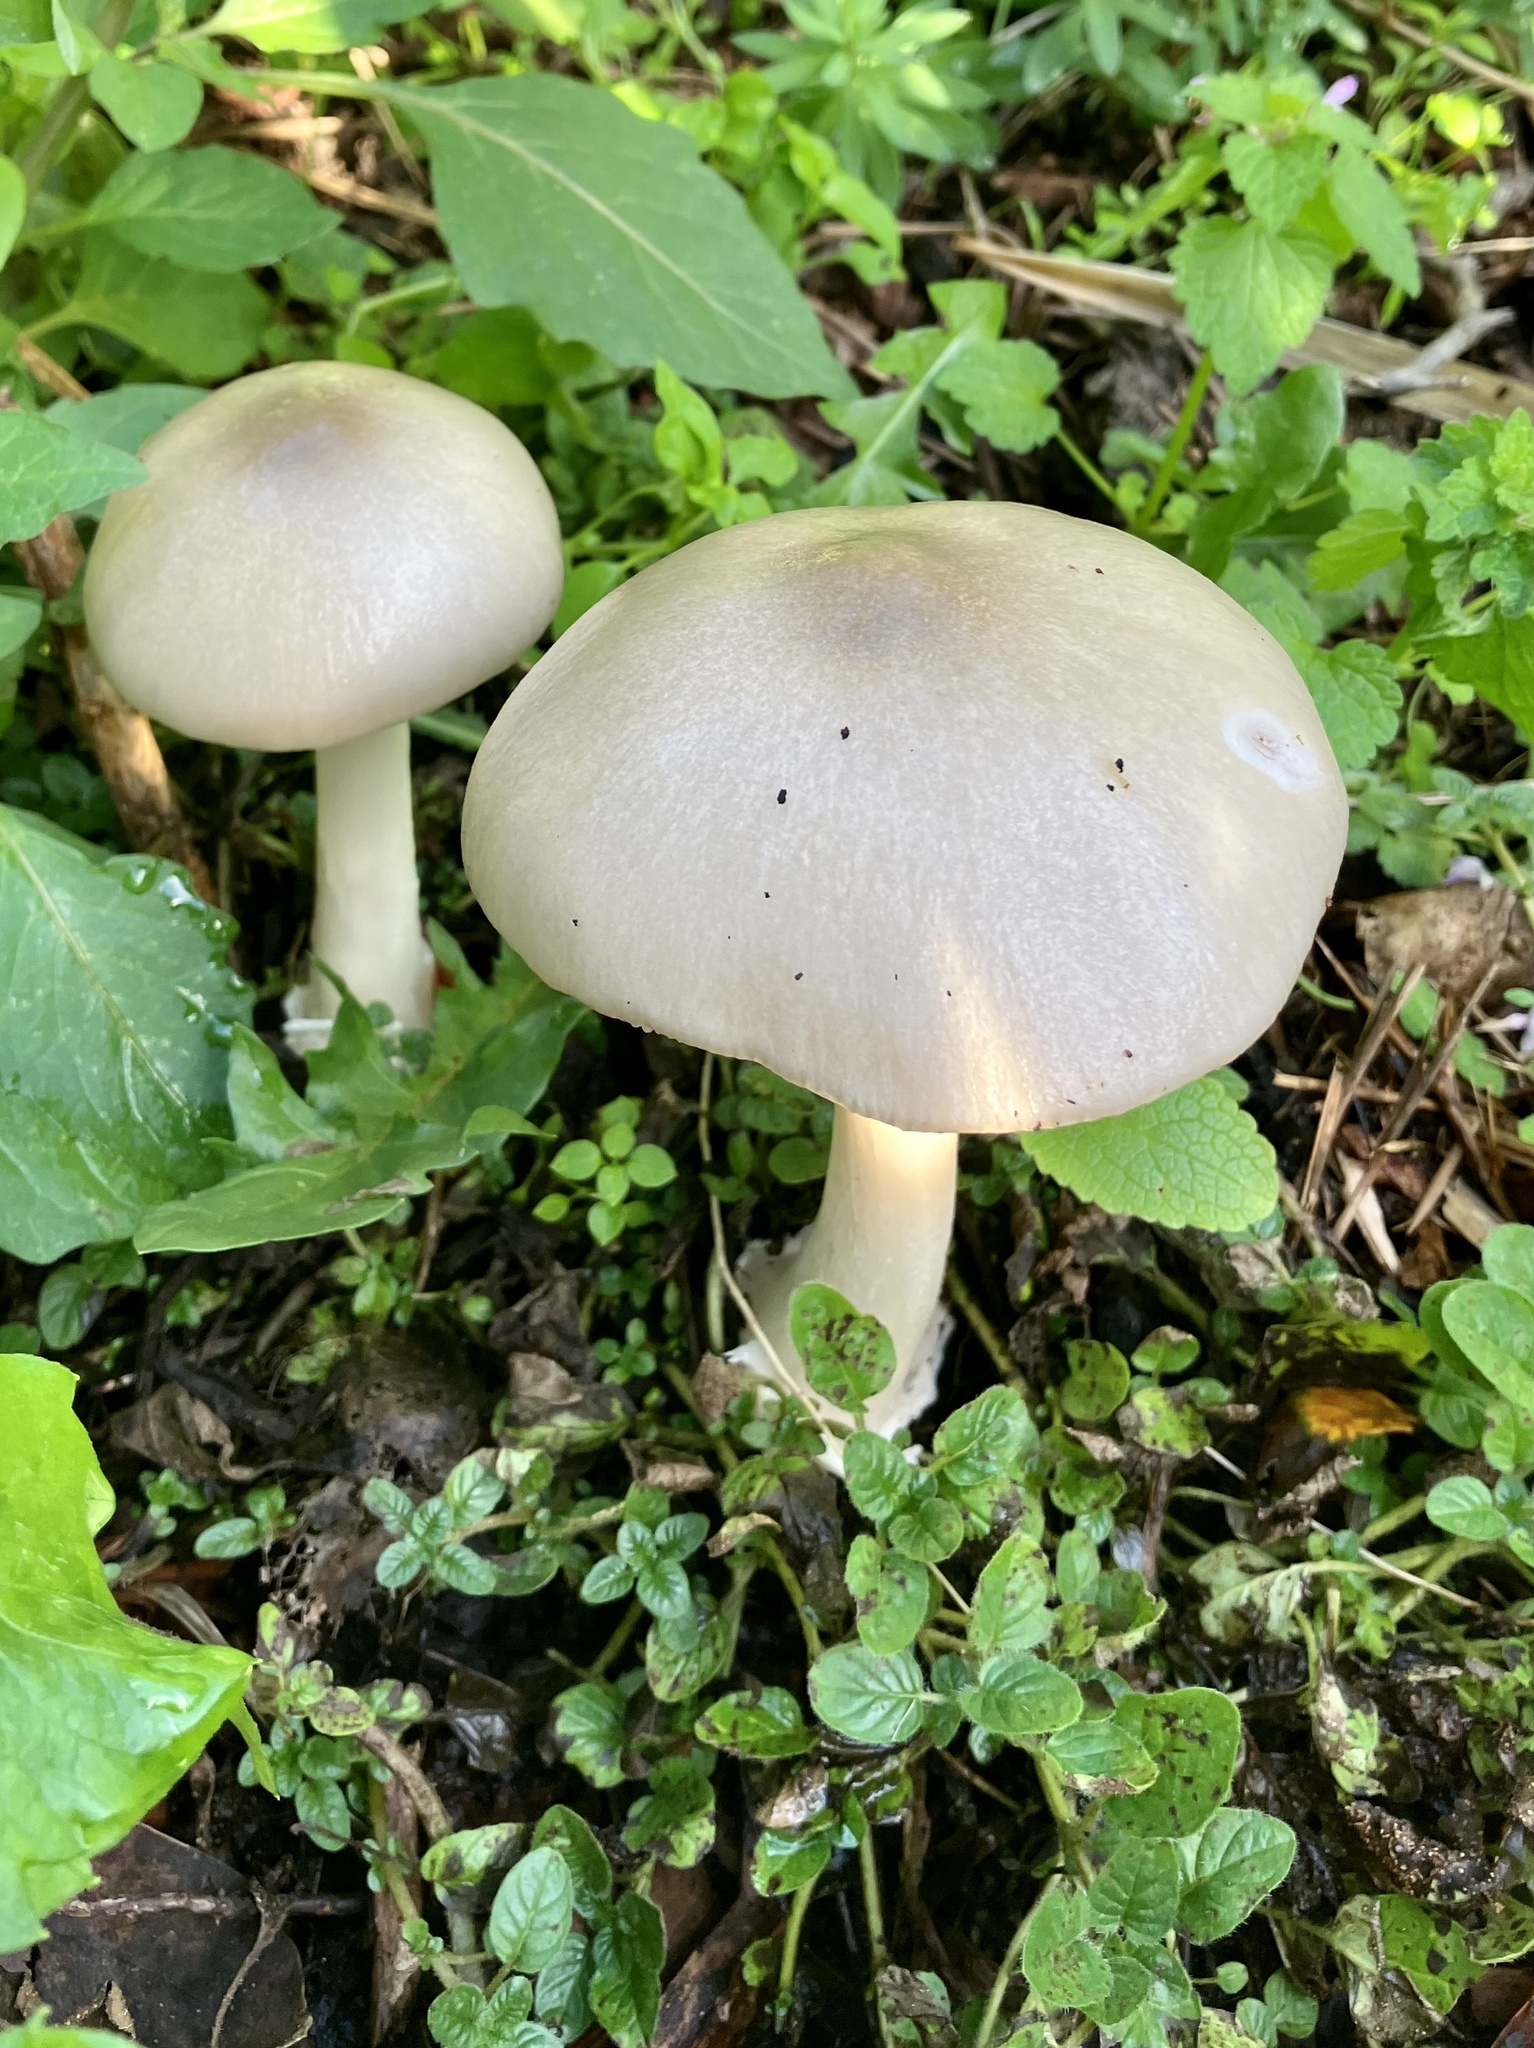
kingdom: Fungi
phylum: Basidiomycota
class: Agaricomycetes
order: Agaricales
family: Pluteaceae
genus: Volvopluteus
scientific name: Volvopluteus gloiocephalus
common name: Stubble rosegill
